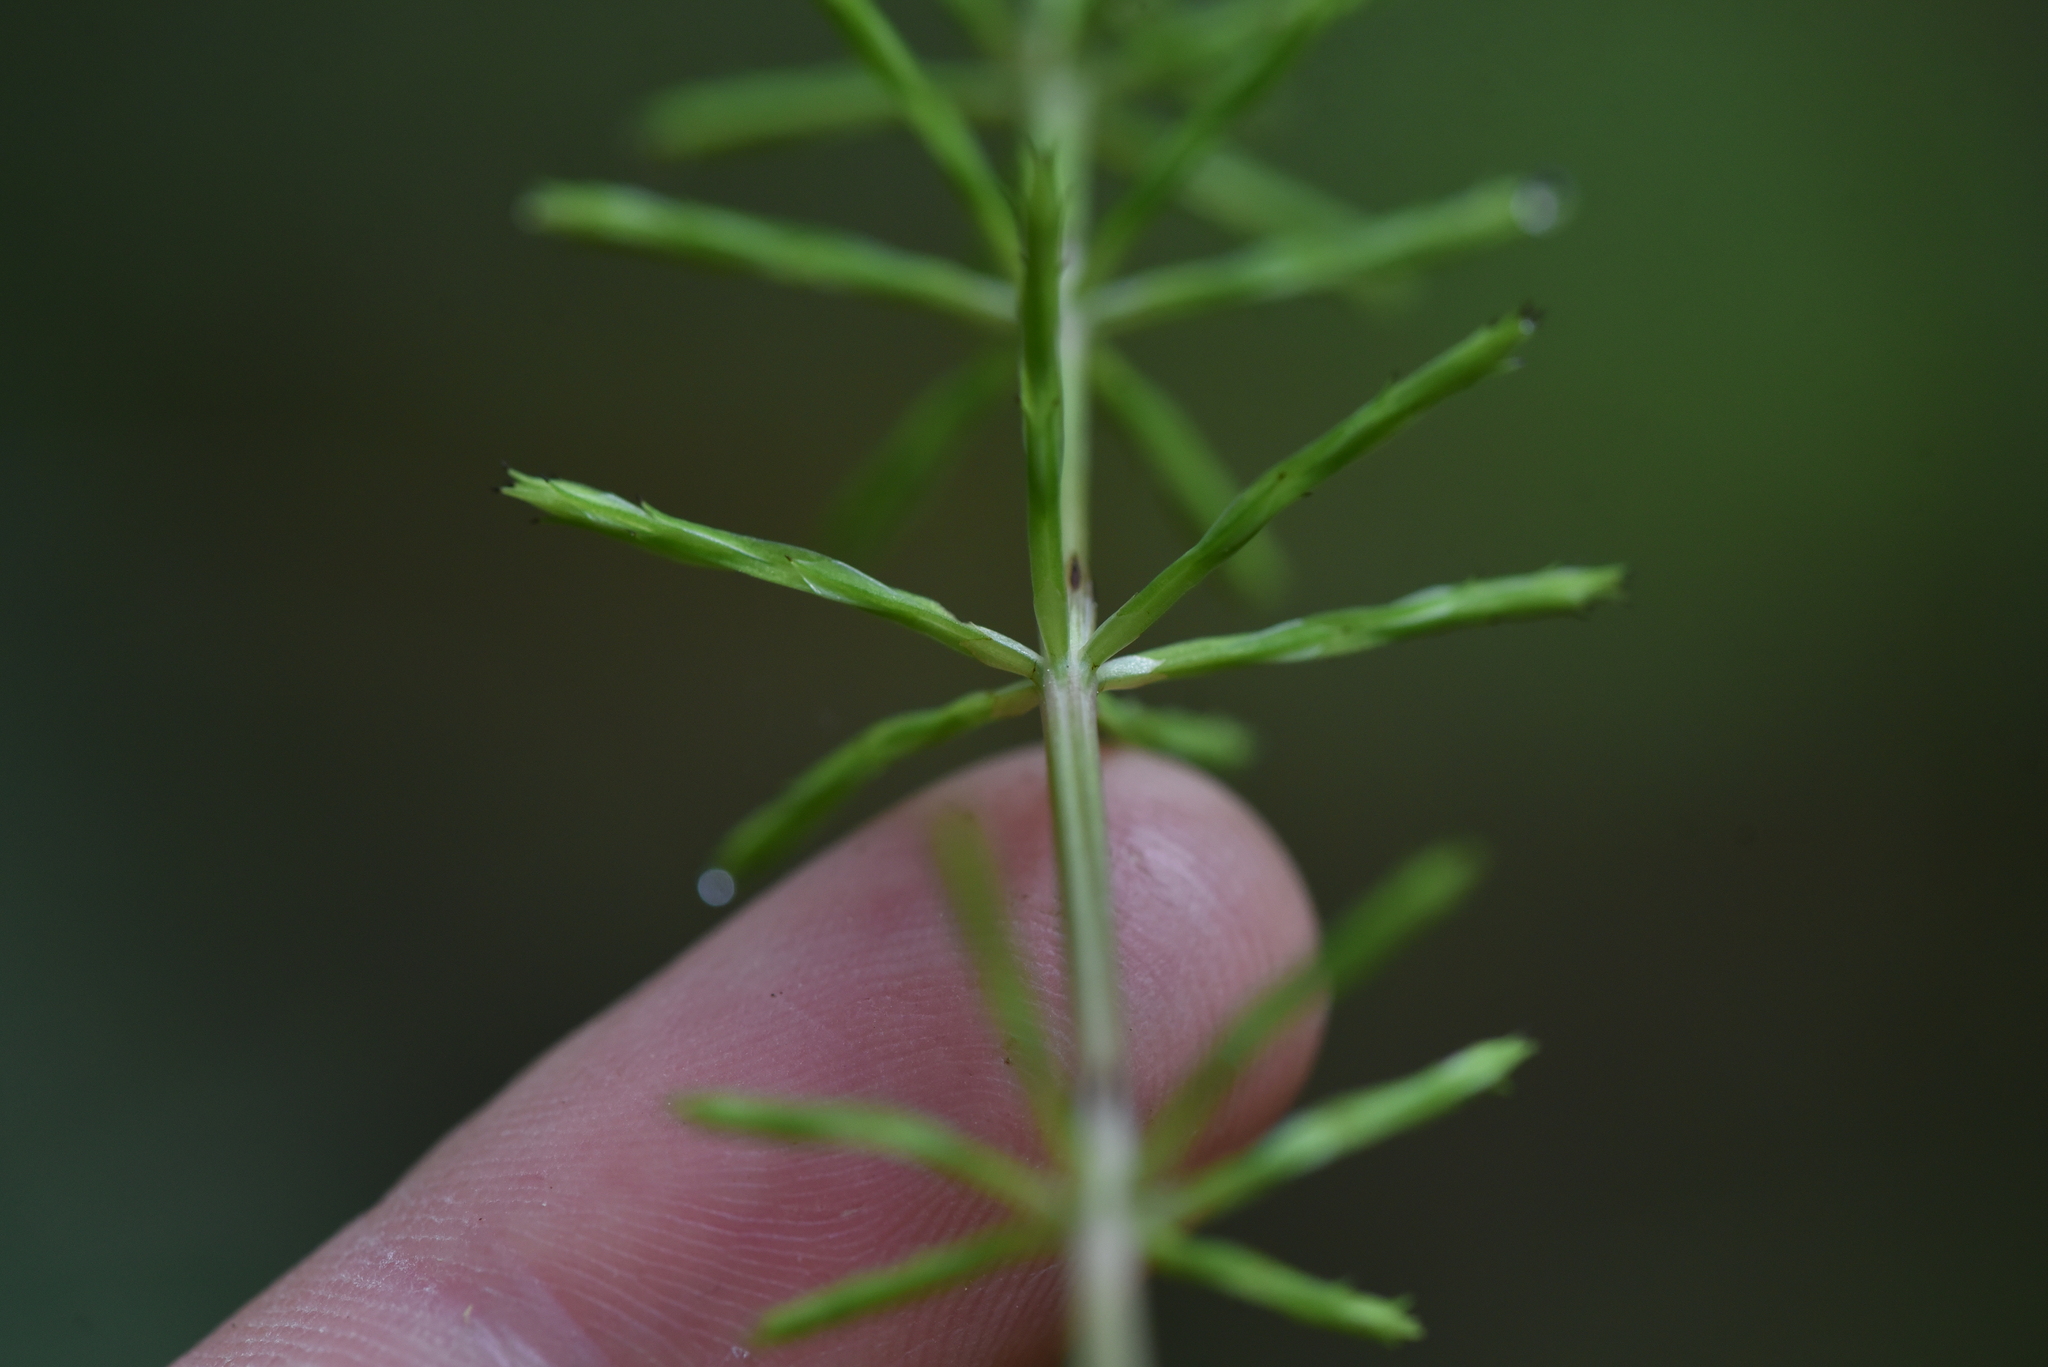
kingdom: Plantae
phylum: Tracheophyta
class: Polypodiopsida
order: Equisetales
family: Equisetaceae
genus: Equisetum
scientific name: Equisetum arvense
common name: Field horsetail
